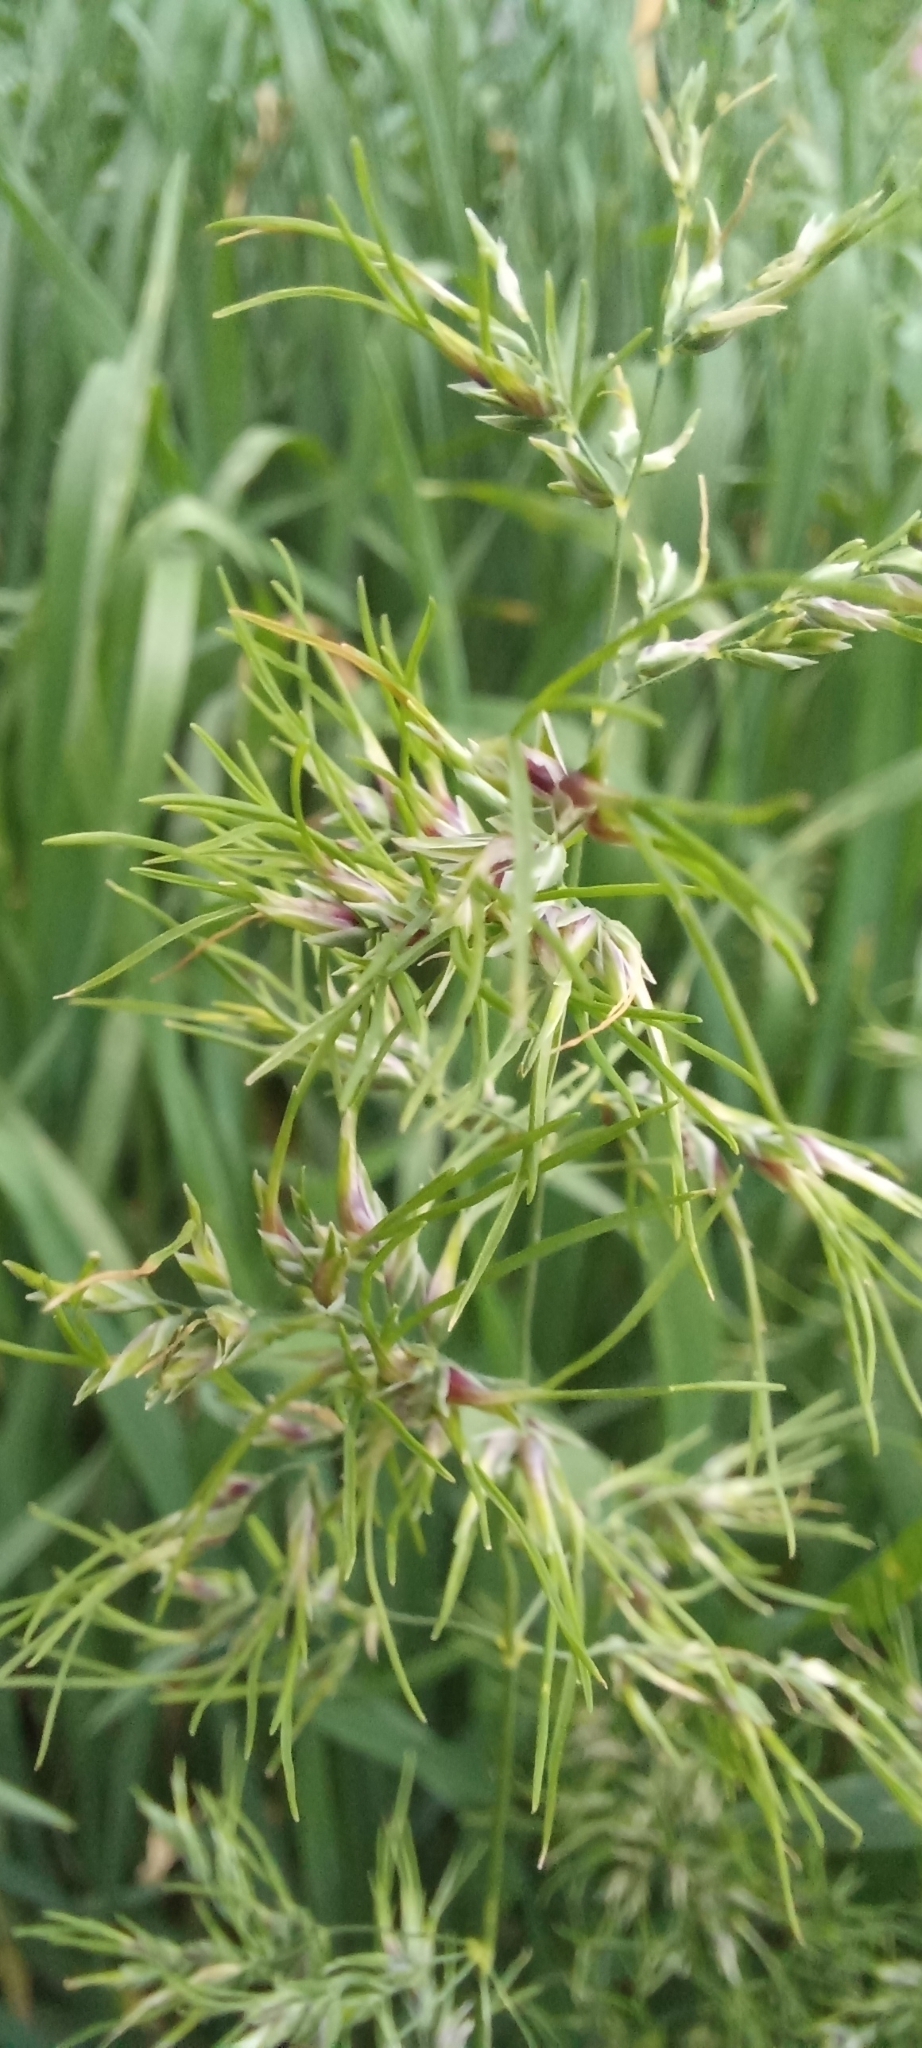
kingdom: Plantae
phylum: Tracheophyta
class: Liliopsida
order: Poales
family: Poaceae
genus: Poa
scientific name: Poa bulbosa
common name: Bulbous bluegrass
